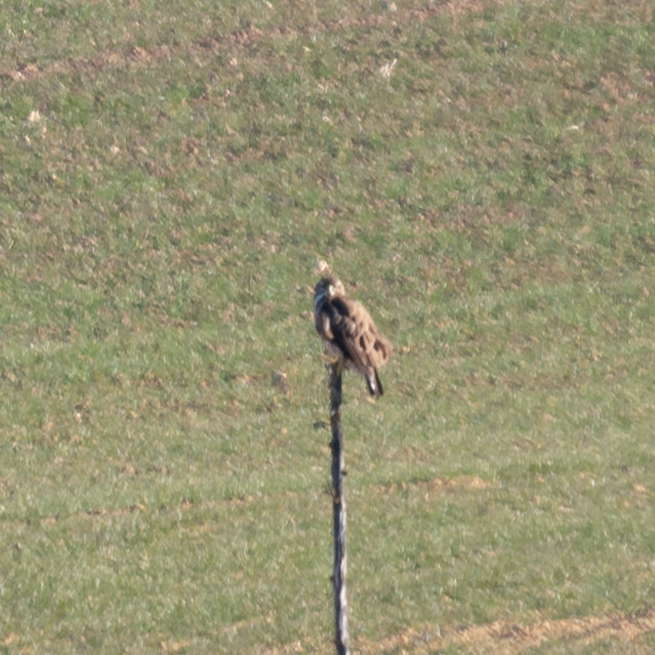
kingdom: Animalia
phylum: Chordata
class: Aves
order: Accipitriformes
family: Accipitridae
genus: Buteo
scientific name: Buteo buteo
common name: Common buzzard
